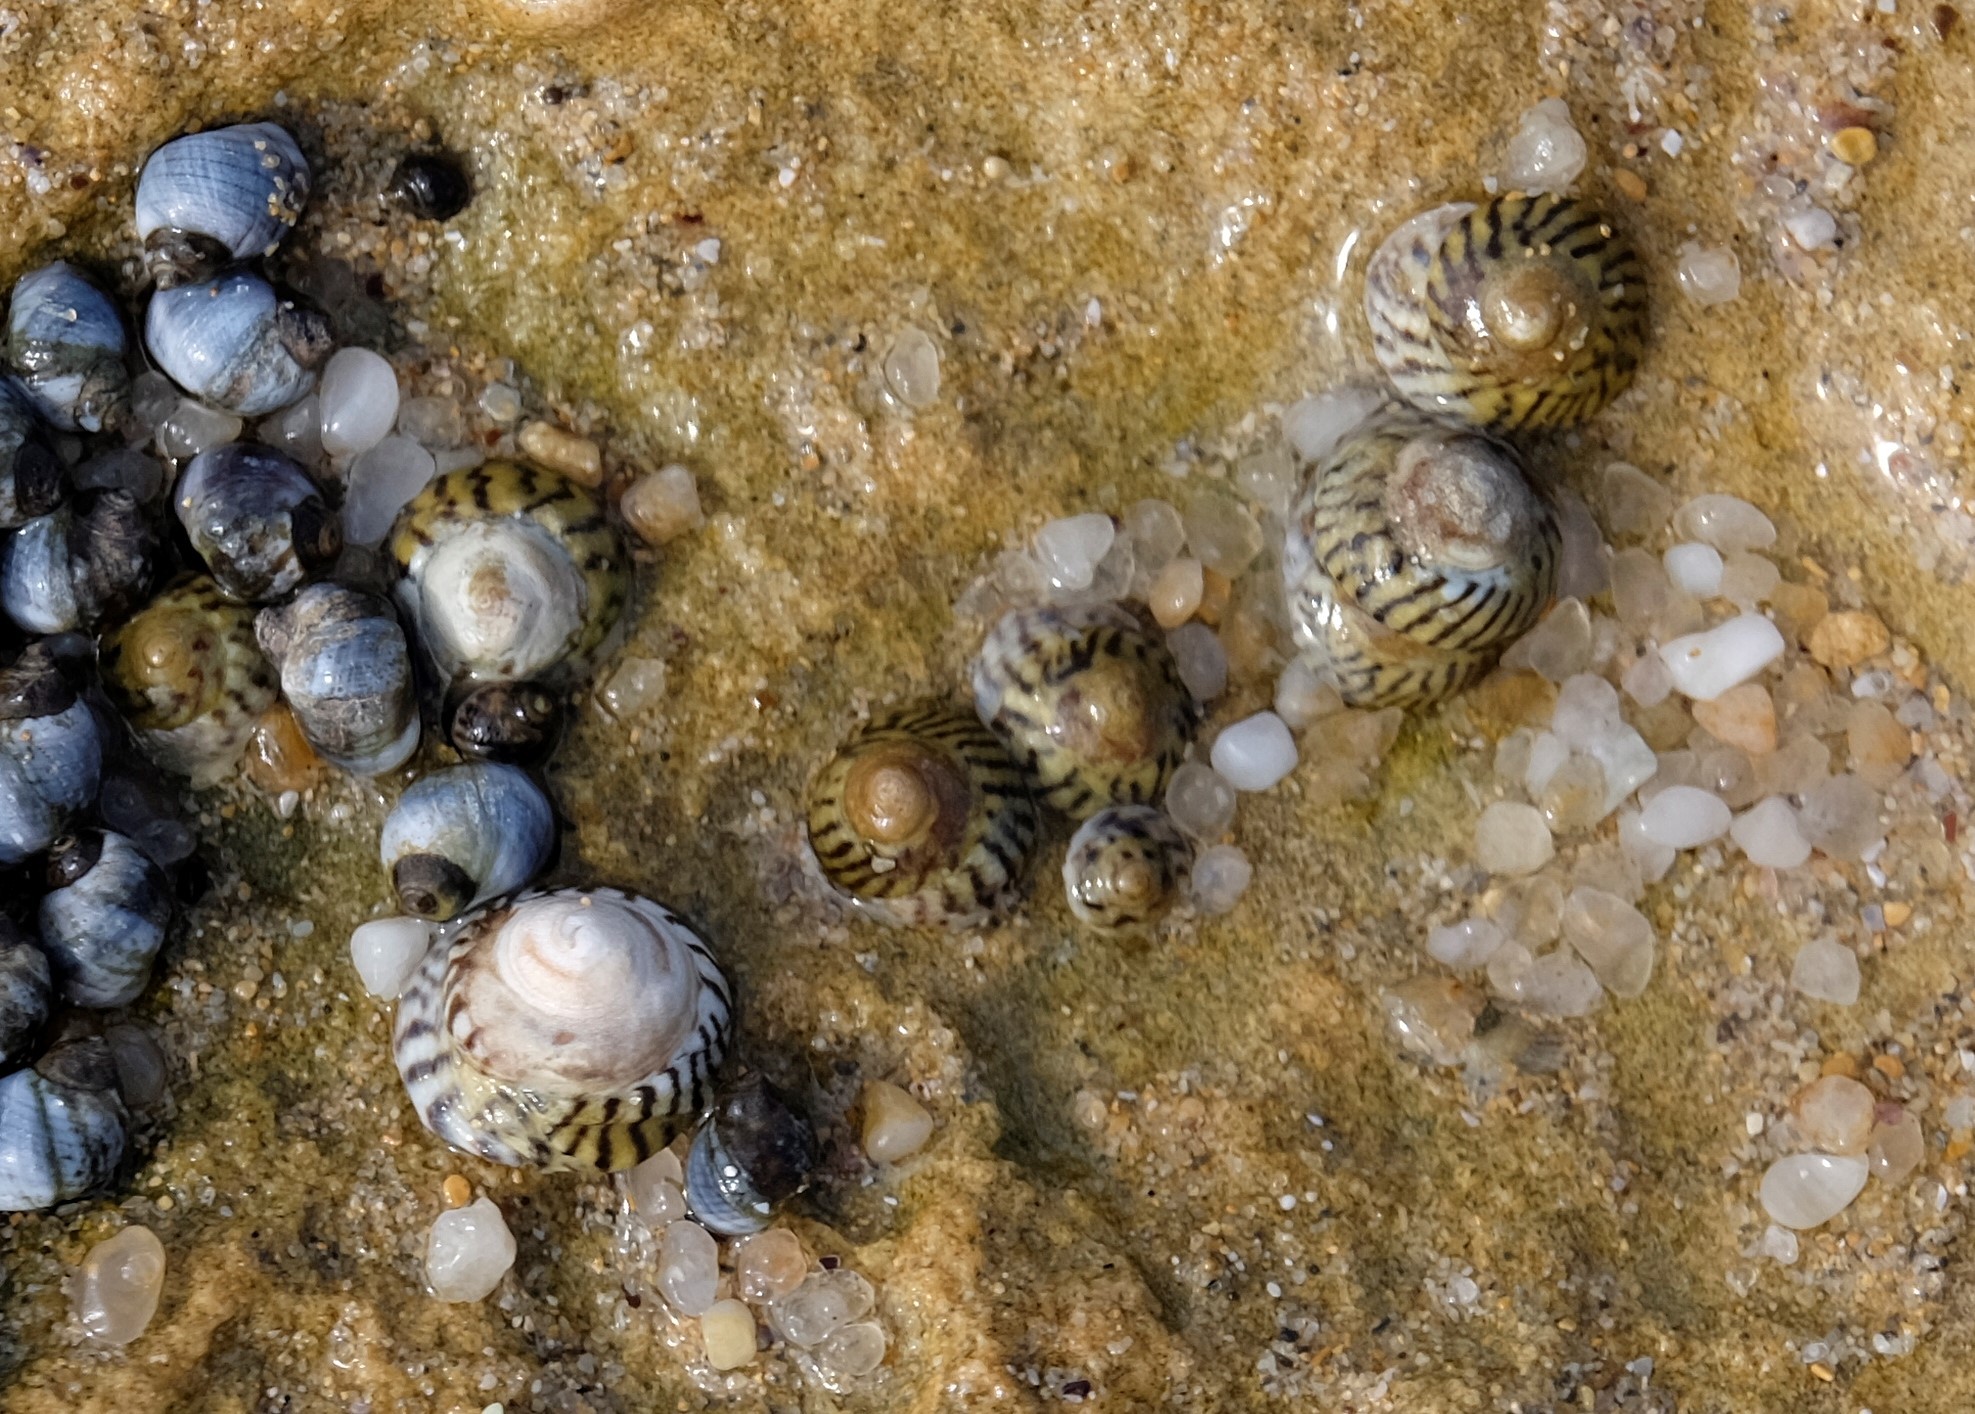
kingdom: Animalia
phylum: Mollusca
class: Gastropoda
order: Littorinimorpha
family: Littorinidae
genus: Bembicium
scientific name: Bembicium nanum
